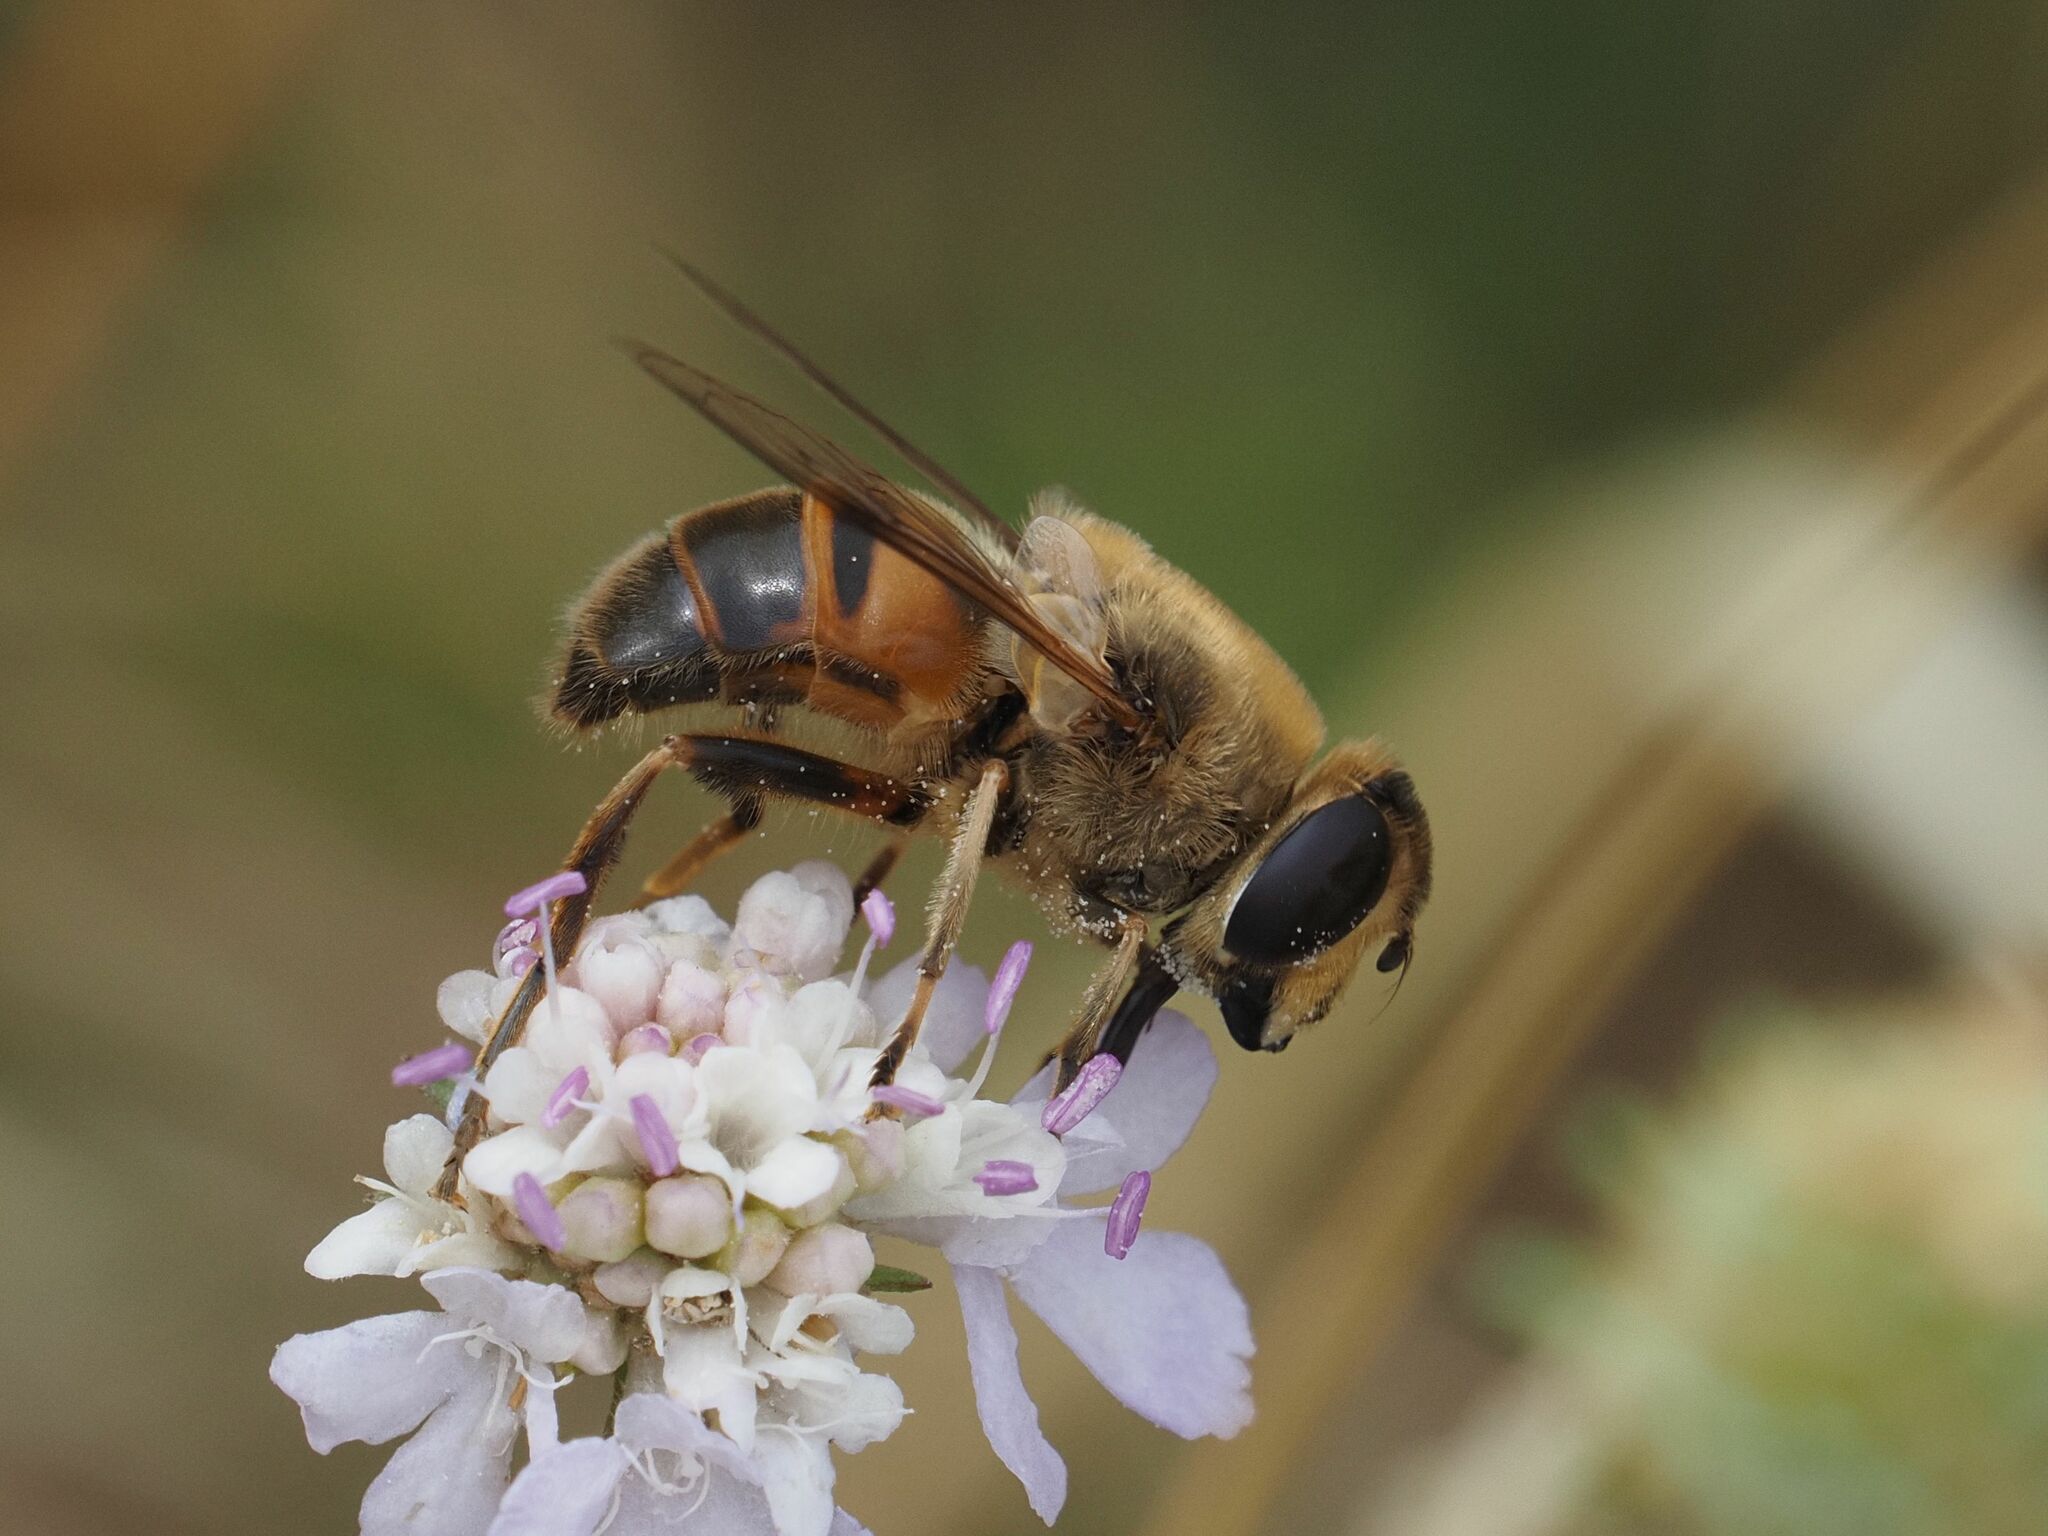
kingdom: Animalia
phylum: Arthropoda
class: Insecta
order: Diptera
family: Syrphidae
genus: Eristalis
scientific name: Eristalis tenax
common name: Drone fly
